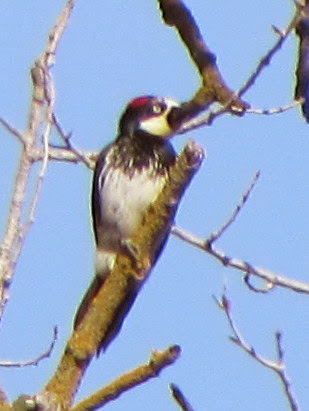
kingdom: Animalia
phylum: Chordata
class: Aves
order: Piciformes
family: Picidae
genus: Melanerpes
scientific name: Melanerpes formicivorus
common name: Acorn woodpecker
